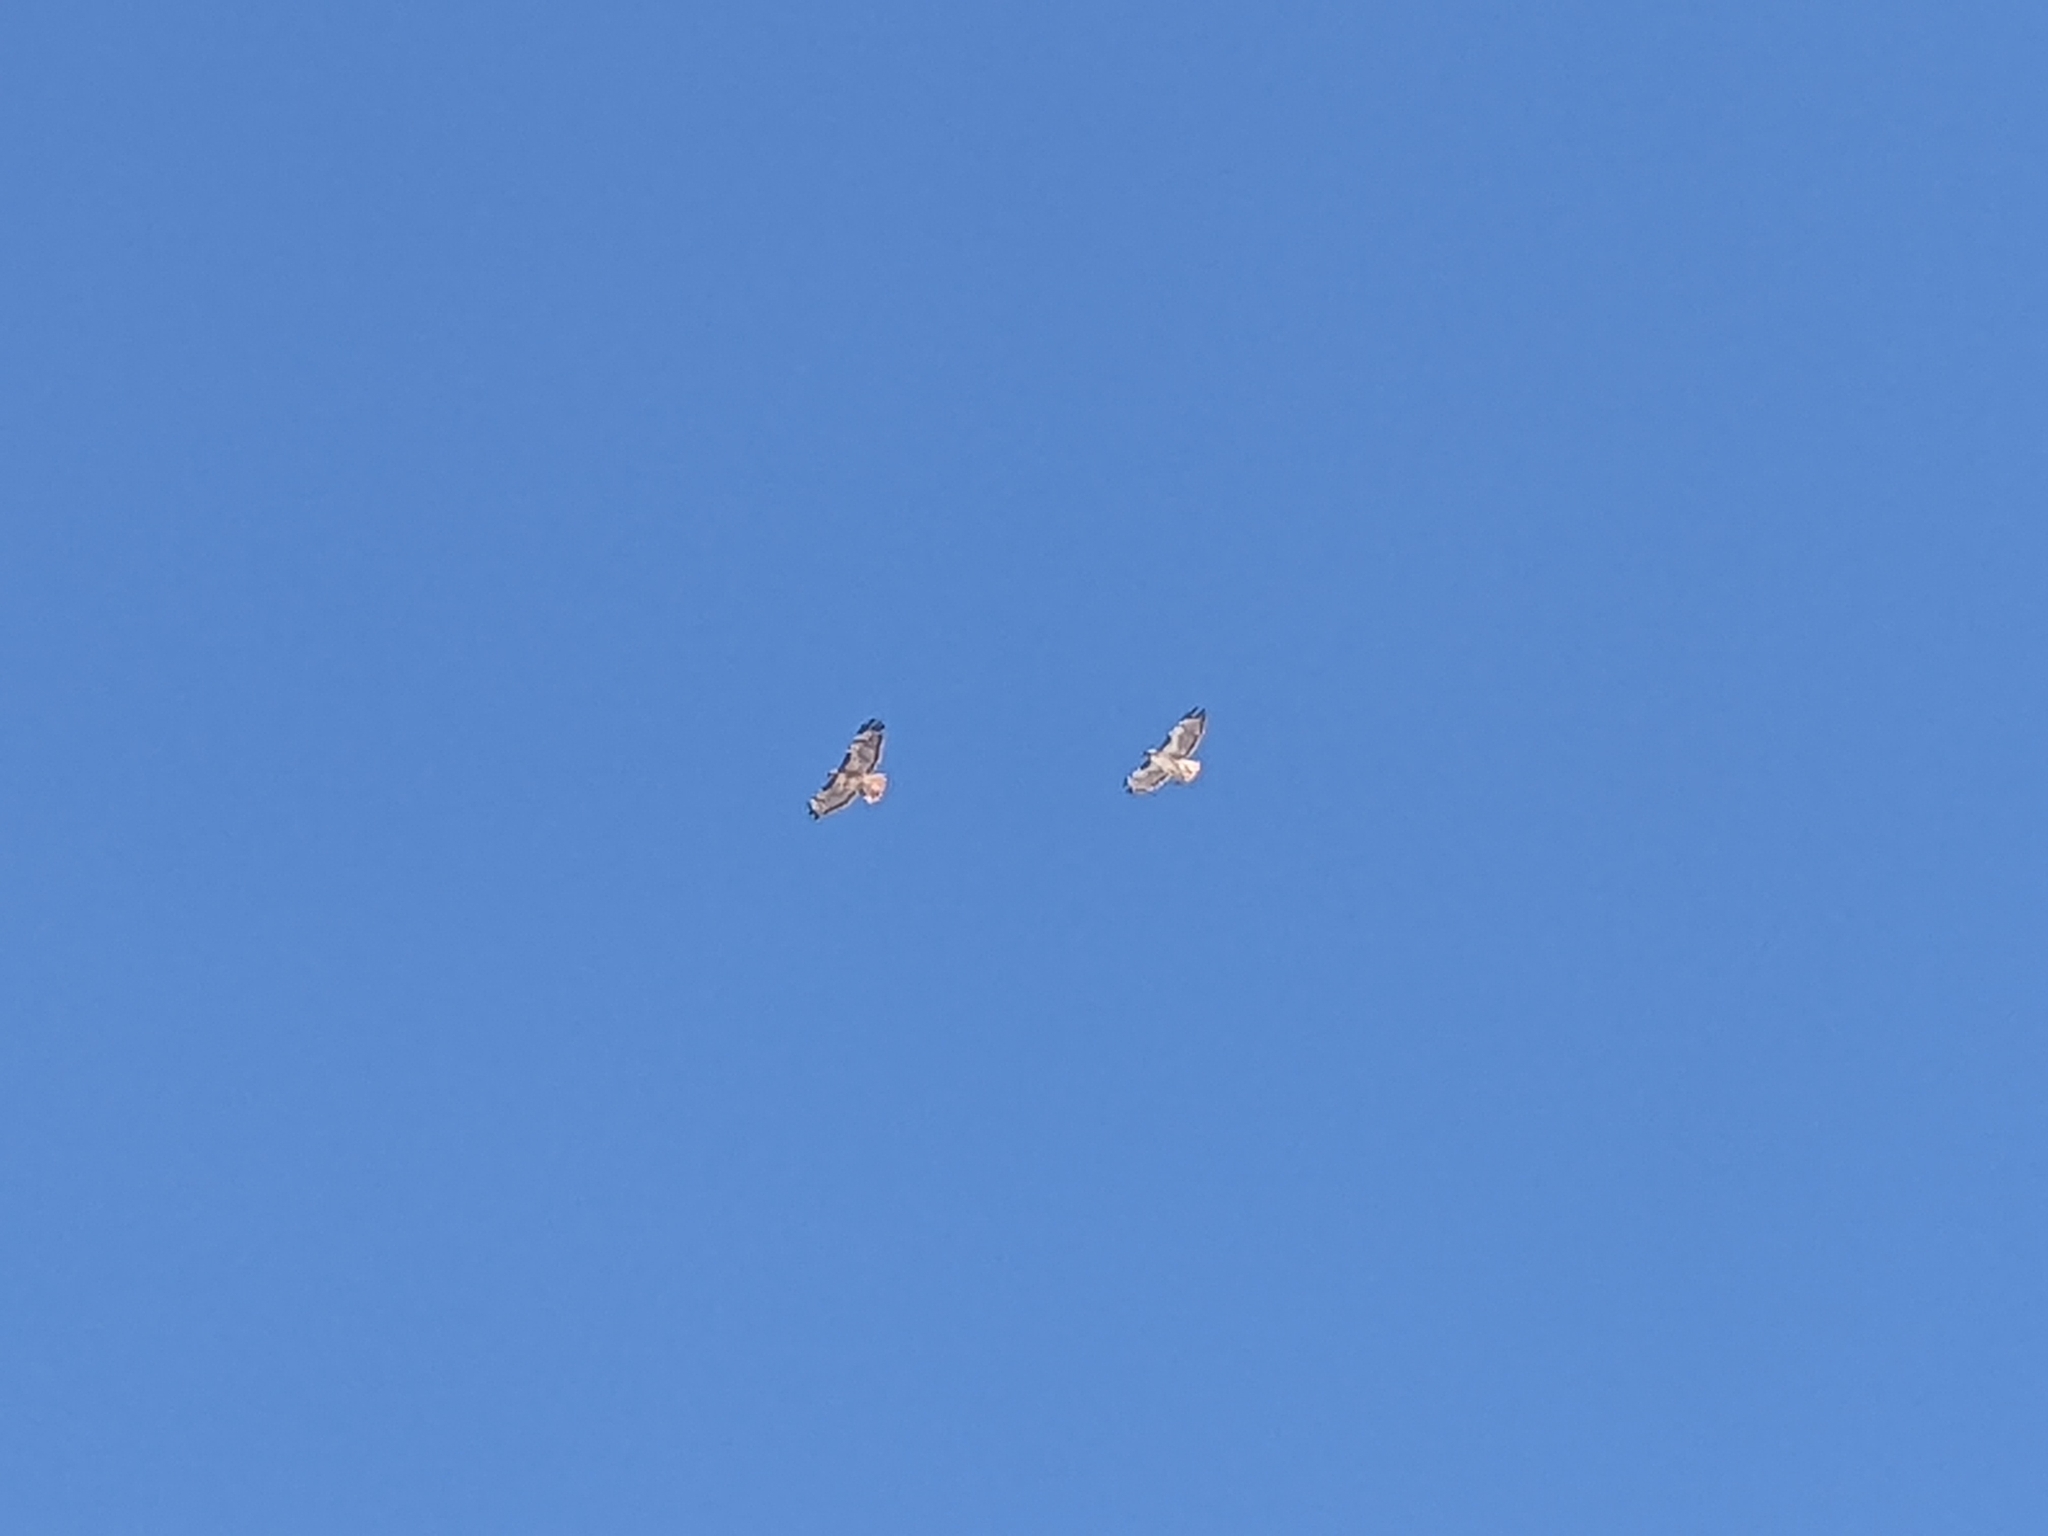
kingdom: Animalia
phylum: Chordata
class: Aves
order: Accipitriformes
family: Accipitridae
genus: Buteo
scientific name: Buteo jamaicensis
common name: Red-tailed hawk
